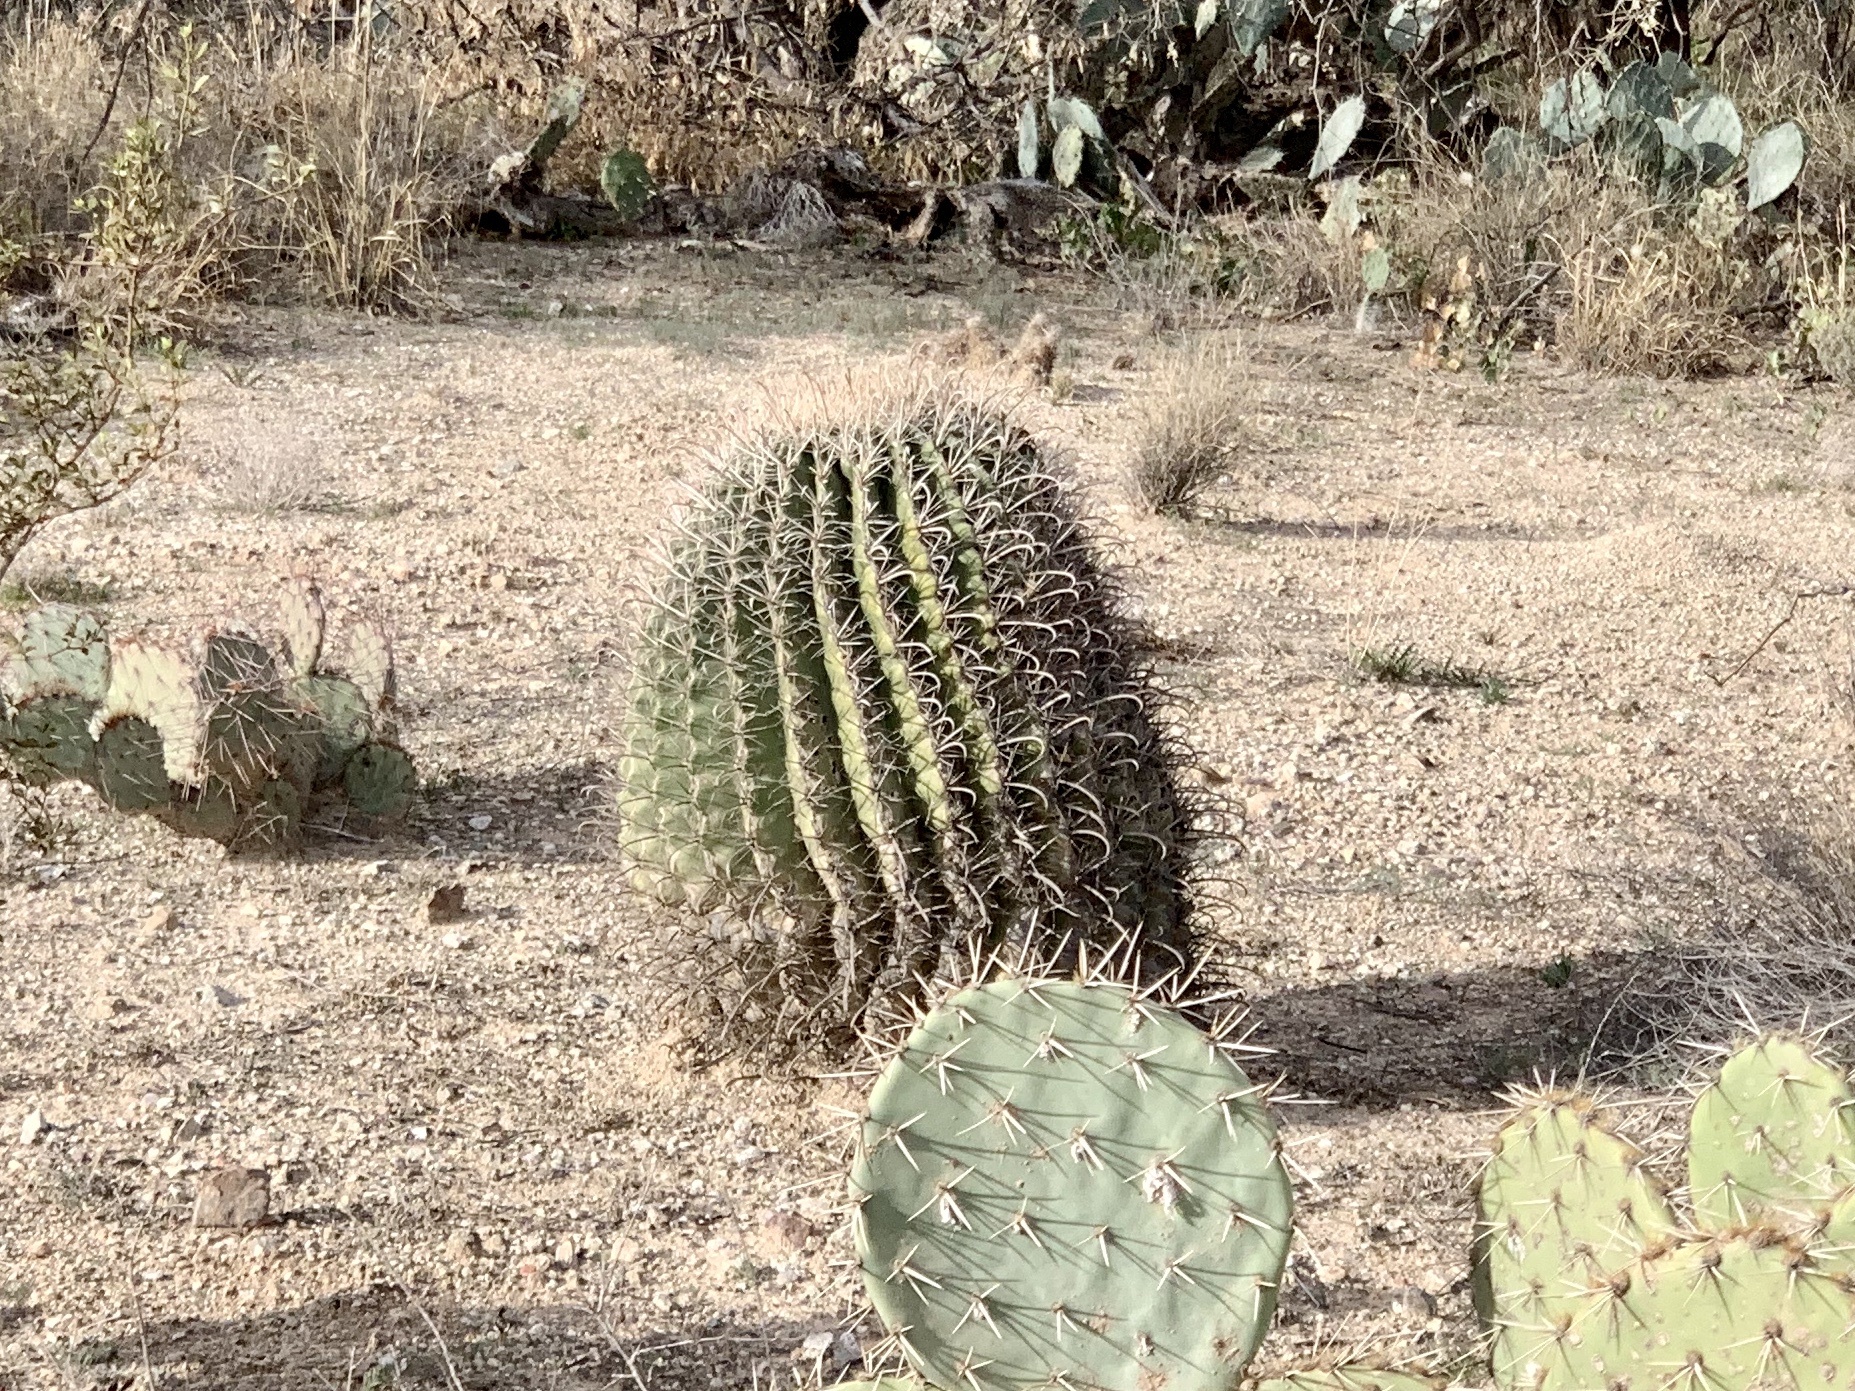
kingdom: Plantae
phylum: Tracheophyta
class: Magnoliopsida
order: Caryophyllales
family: Cactaceae
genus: Ferocactus
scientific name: Ferocactus wislizeni
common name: Candy barrel cactus
